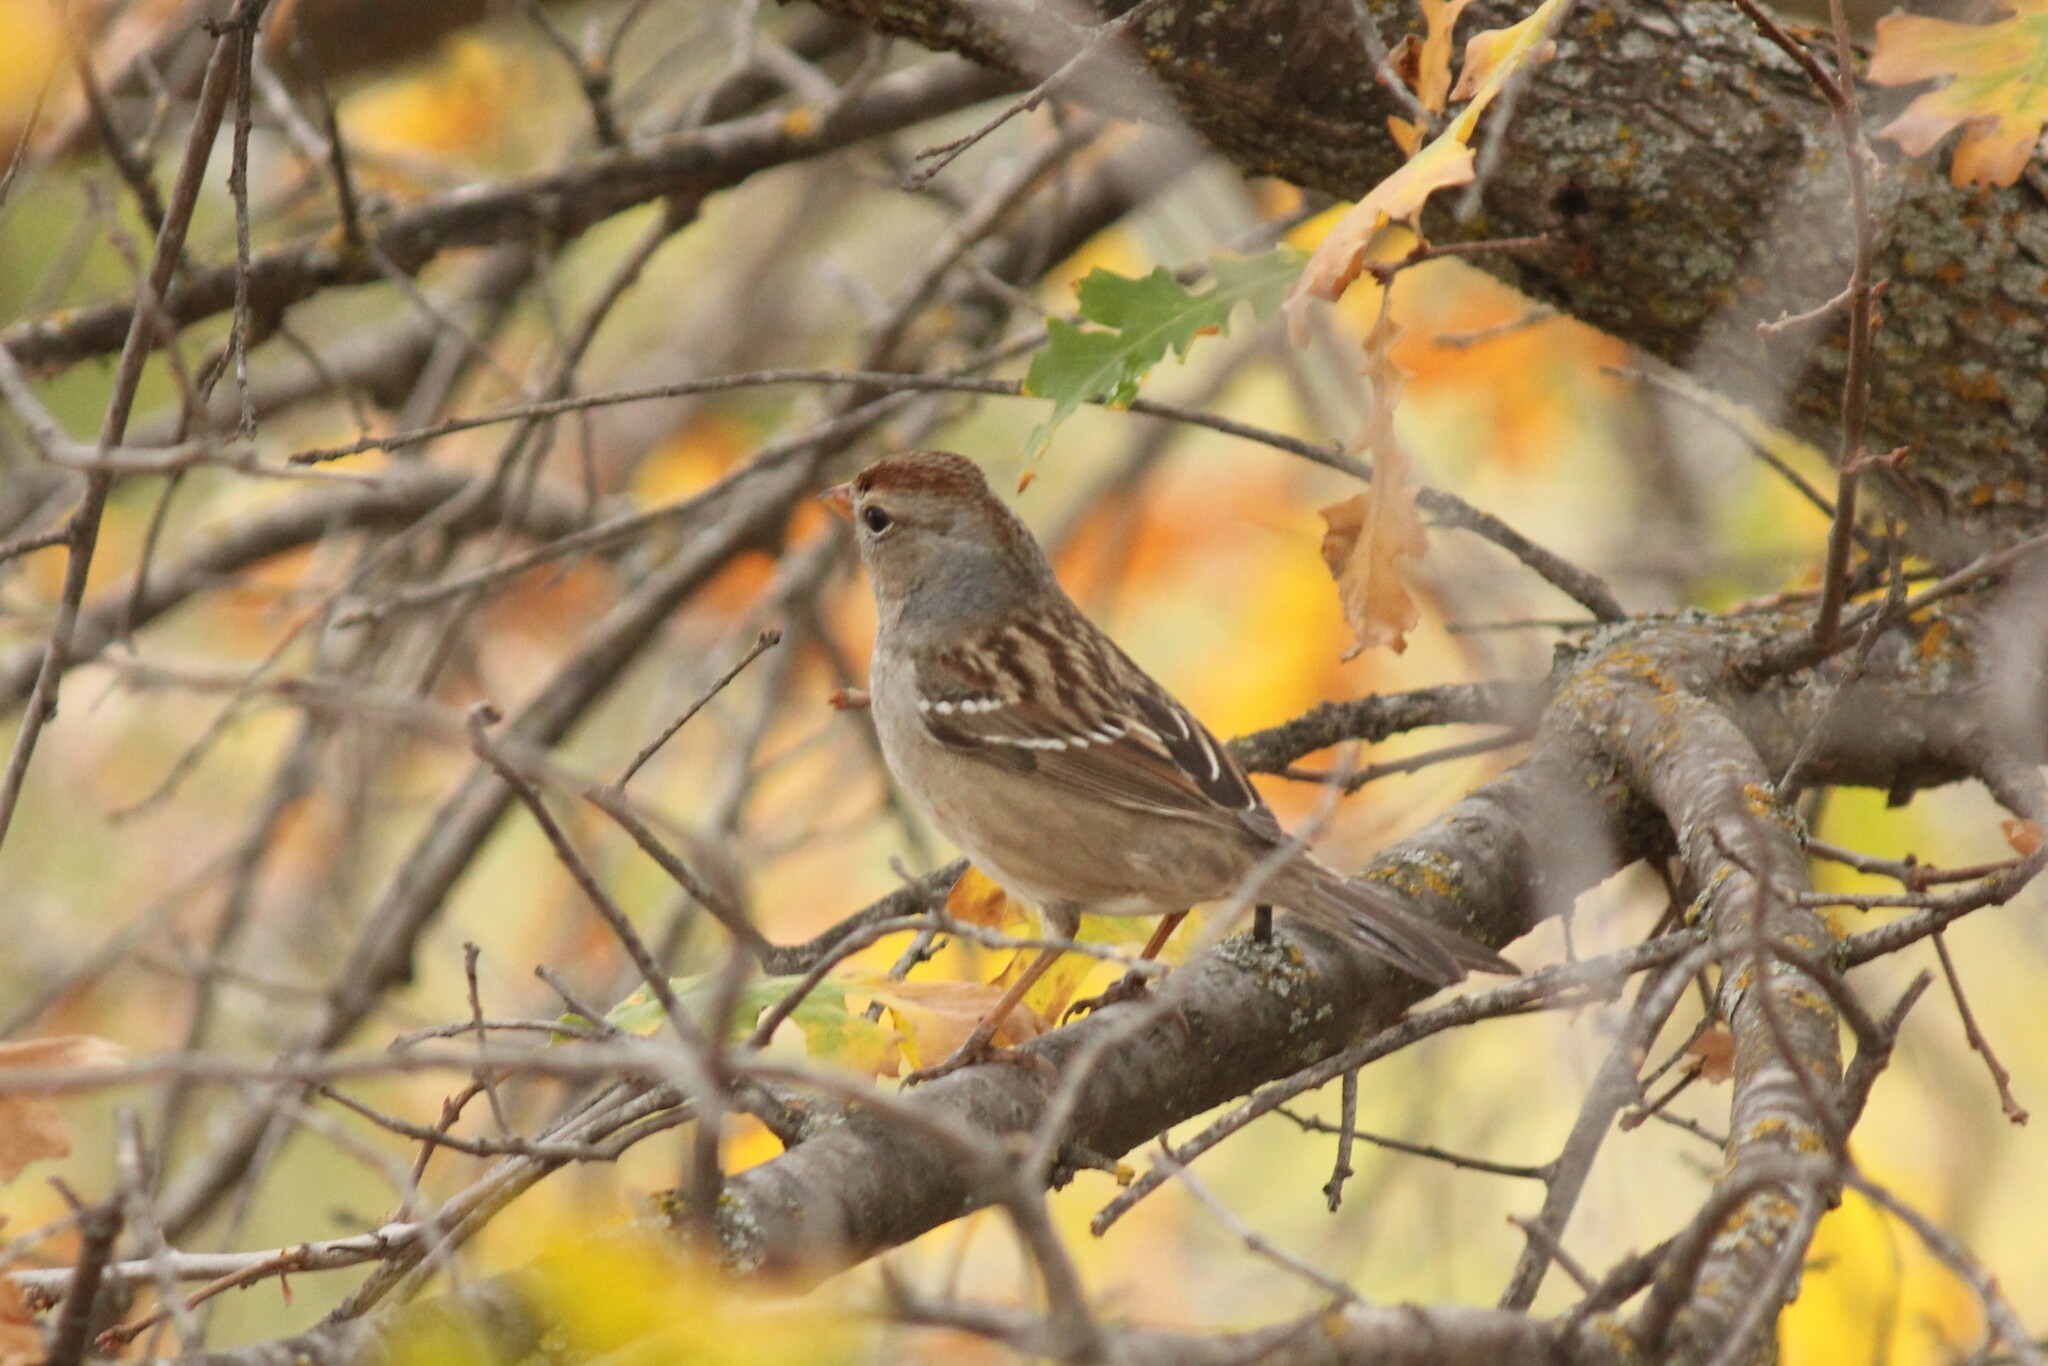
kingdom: Animalia
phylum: Chordata
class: Aves
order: Passeriformes
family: Passerellidae
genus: Zonotrichia
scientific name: Zonotrichia leucophrys
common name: White-crowned sparrow
